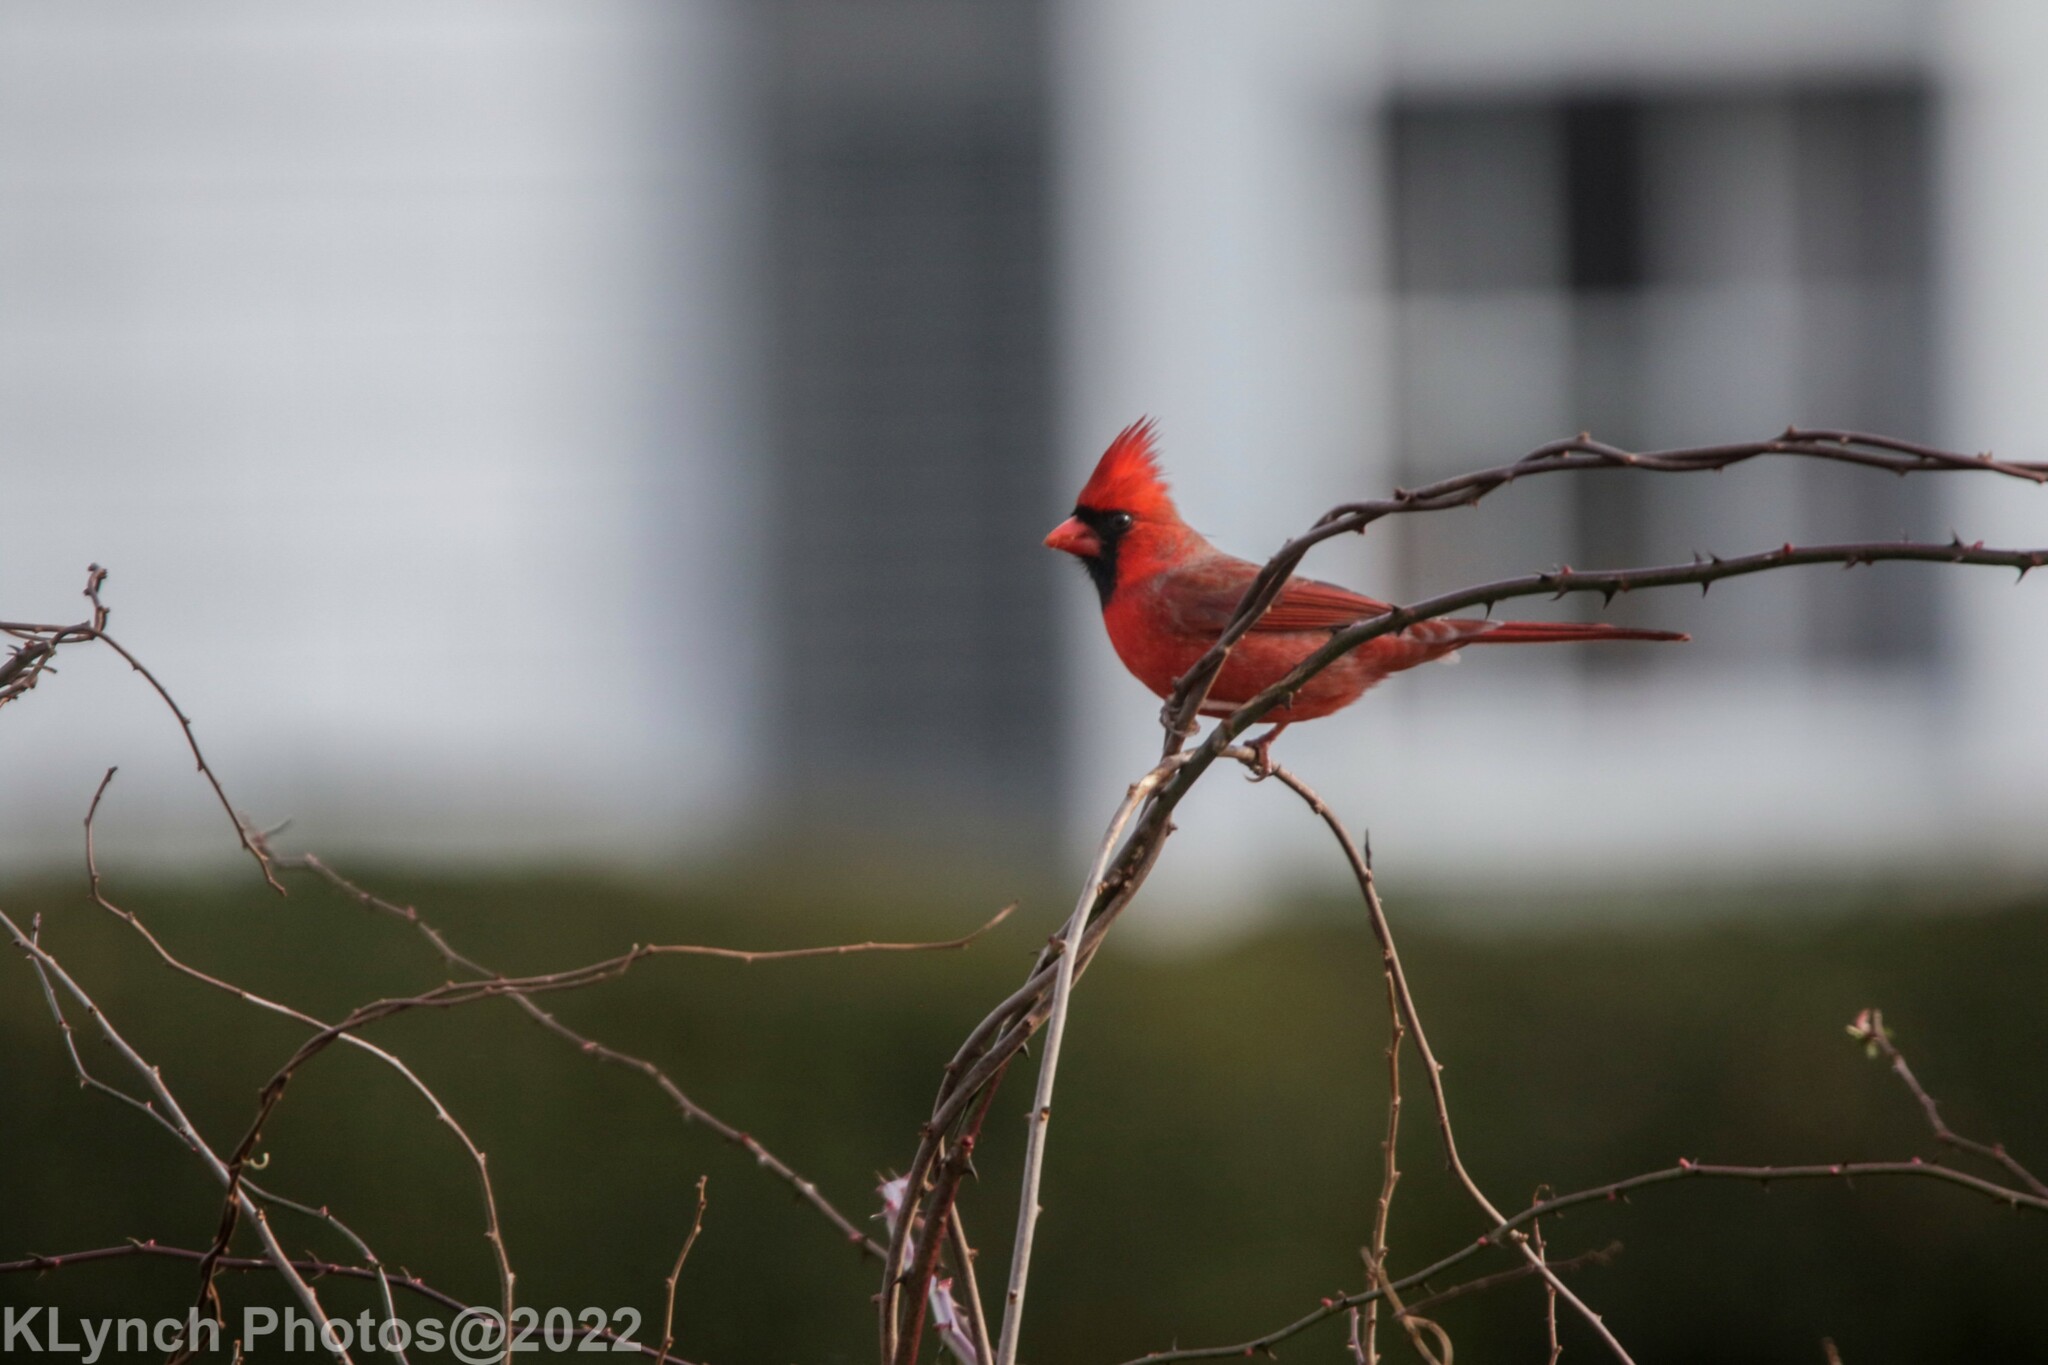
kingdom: Animalia
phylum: Chordata
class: Aves
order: Passeriformes
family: Cardinalidae
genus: Cardinalis
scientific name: Cardinalis cardinalis
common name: Northern cardinal
